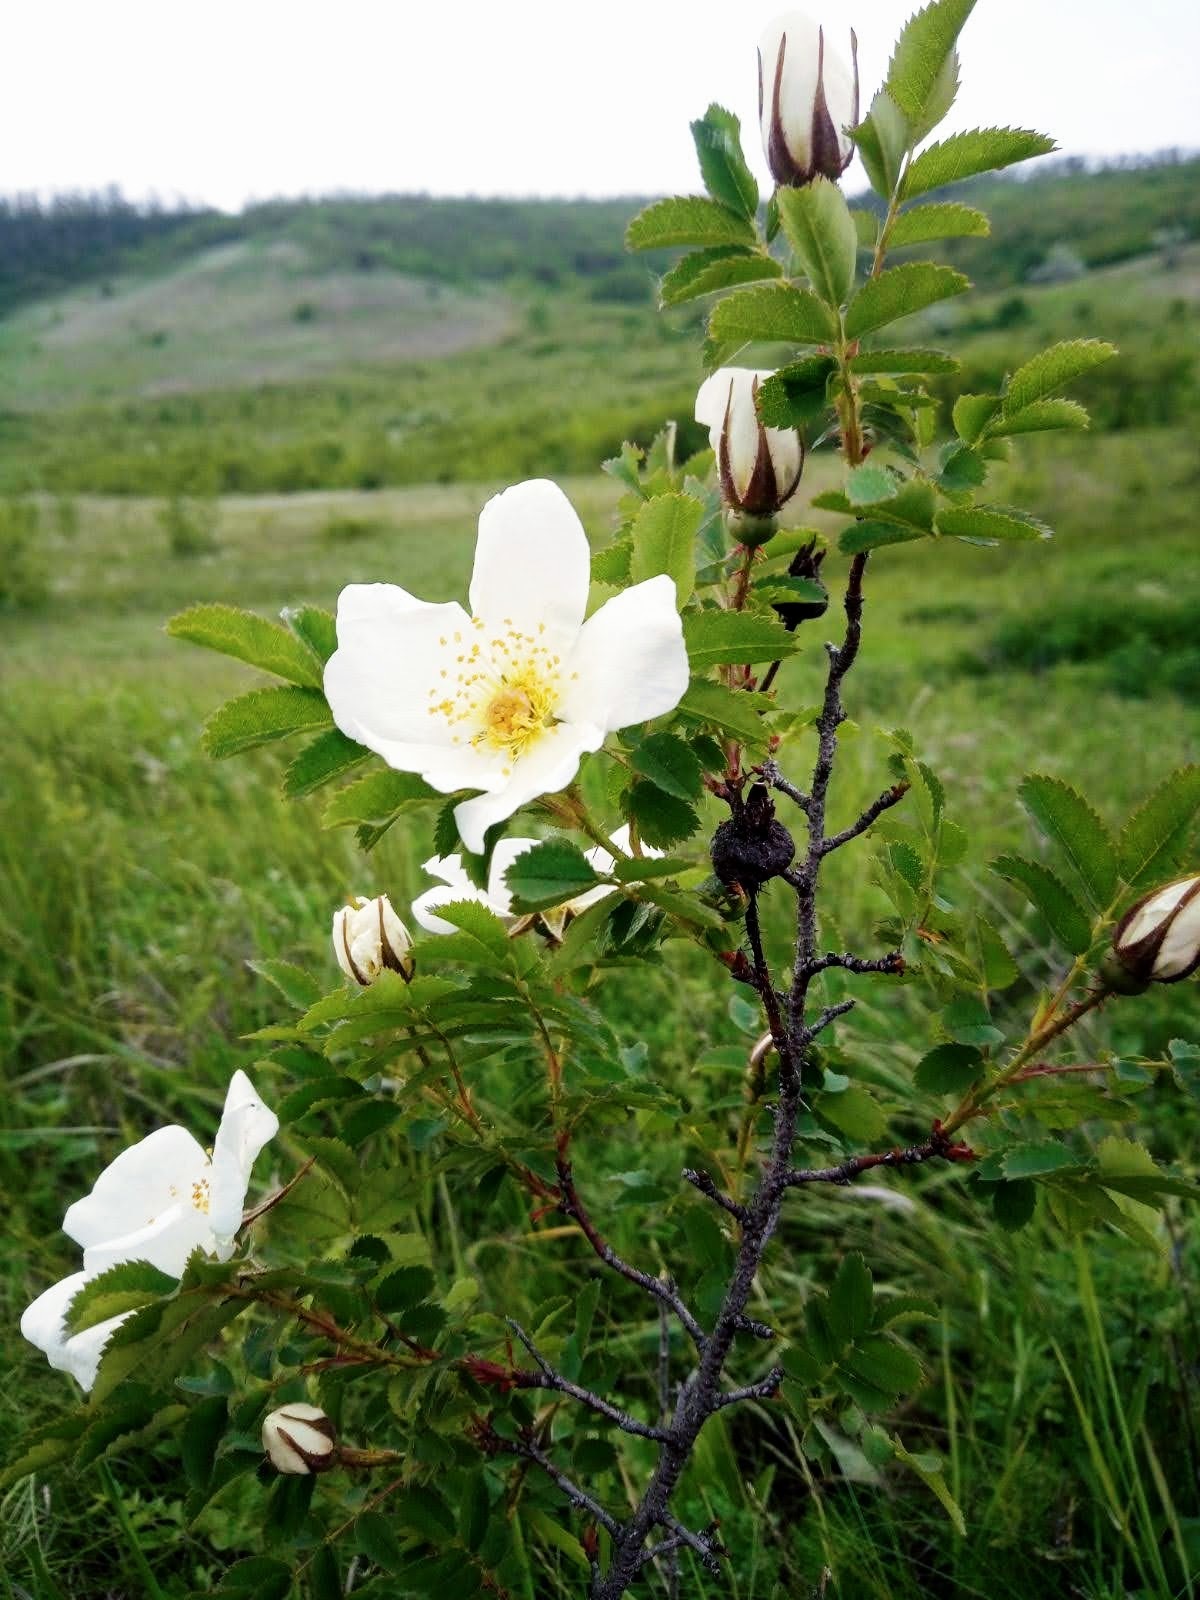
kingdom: Plantae
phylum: Tracheophyta
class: Magnoliopsida
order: Rosales
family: Rosaceae
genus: Rosa
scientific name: Rosa spinosissima
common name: Burnet rose
